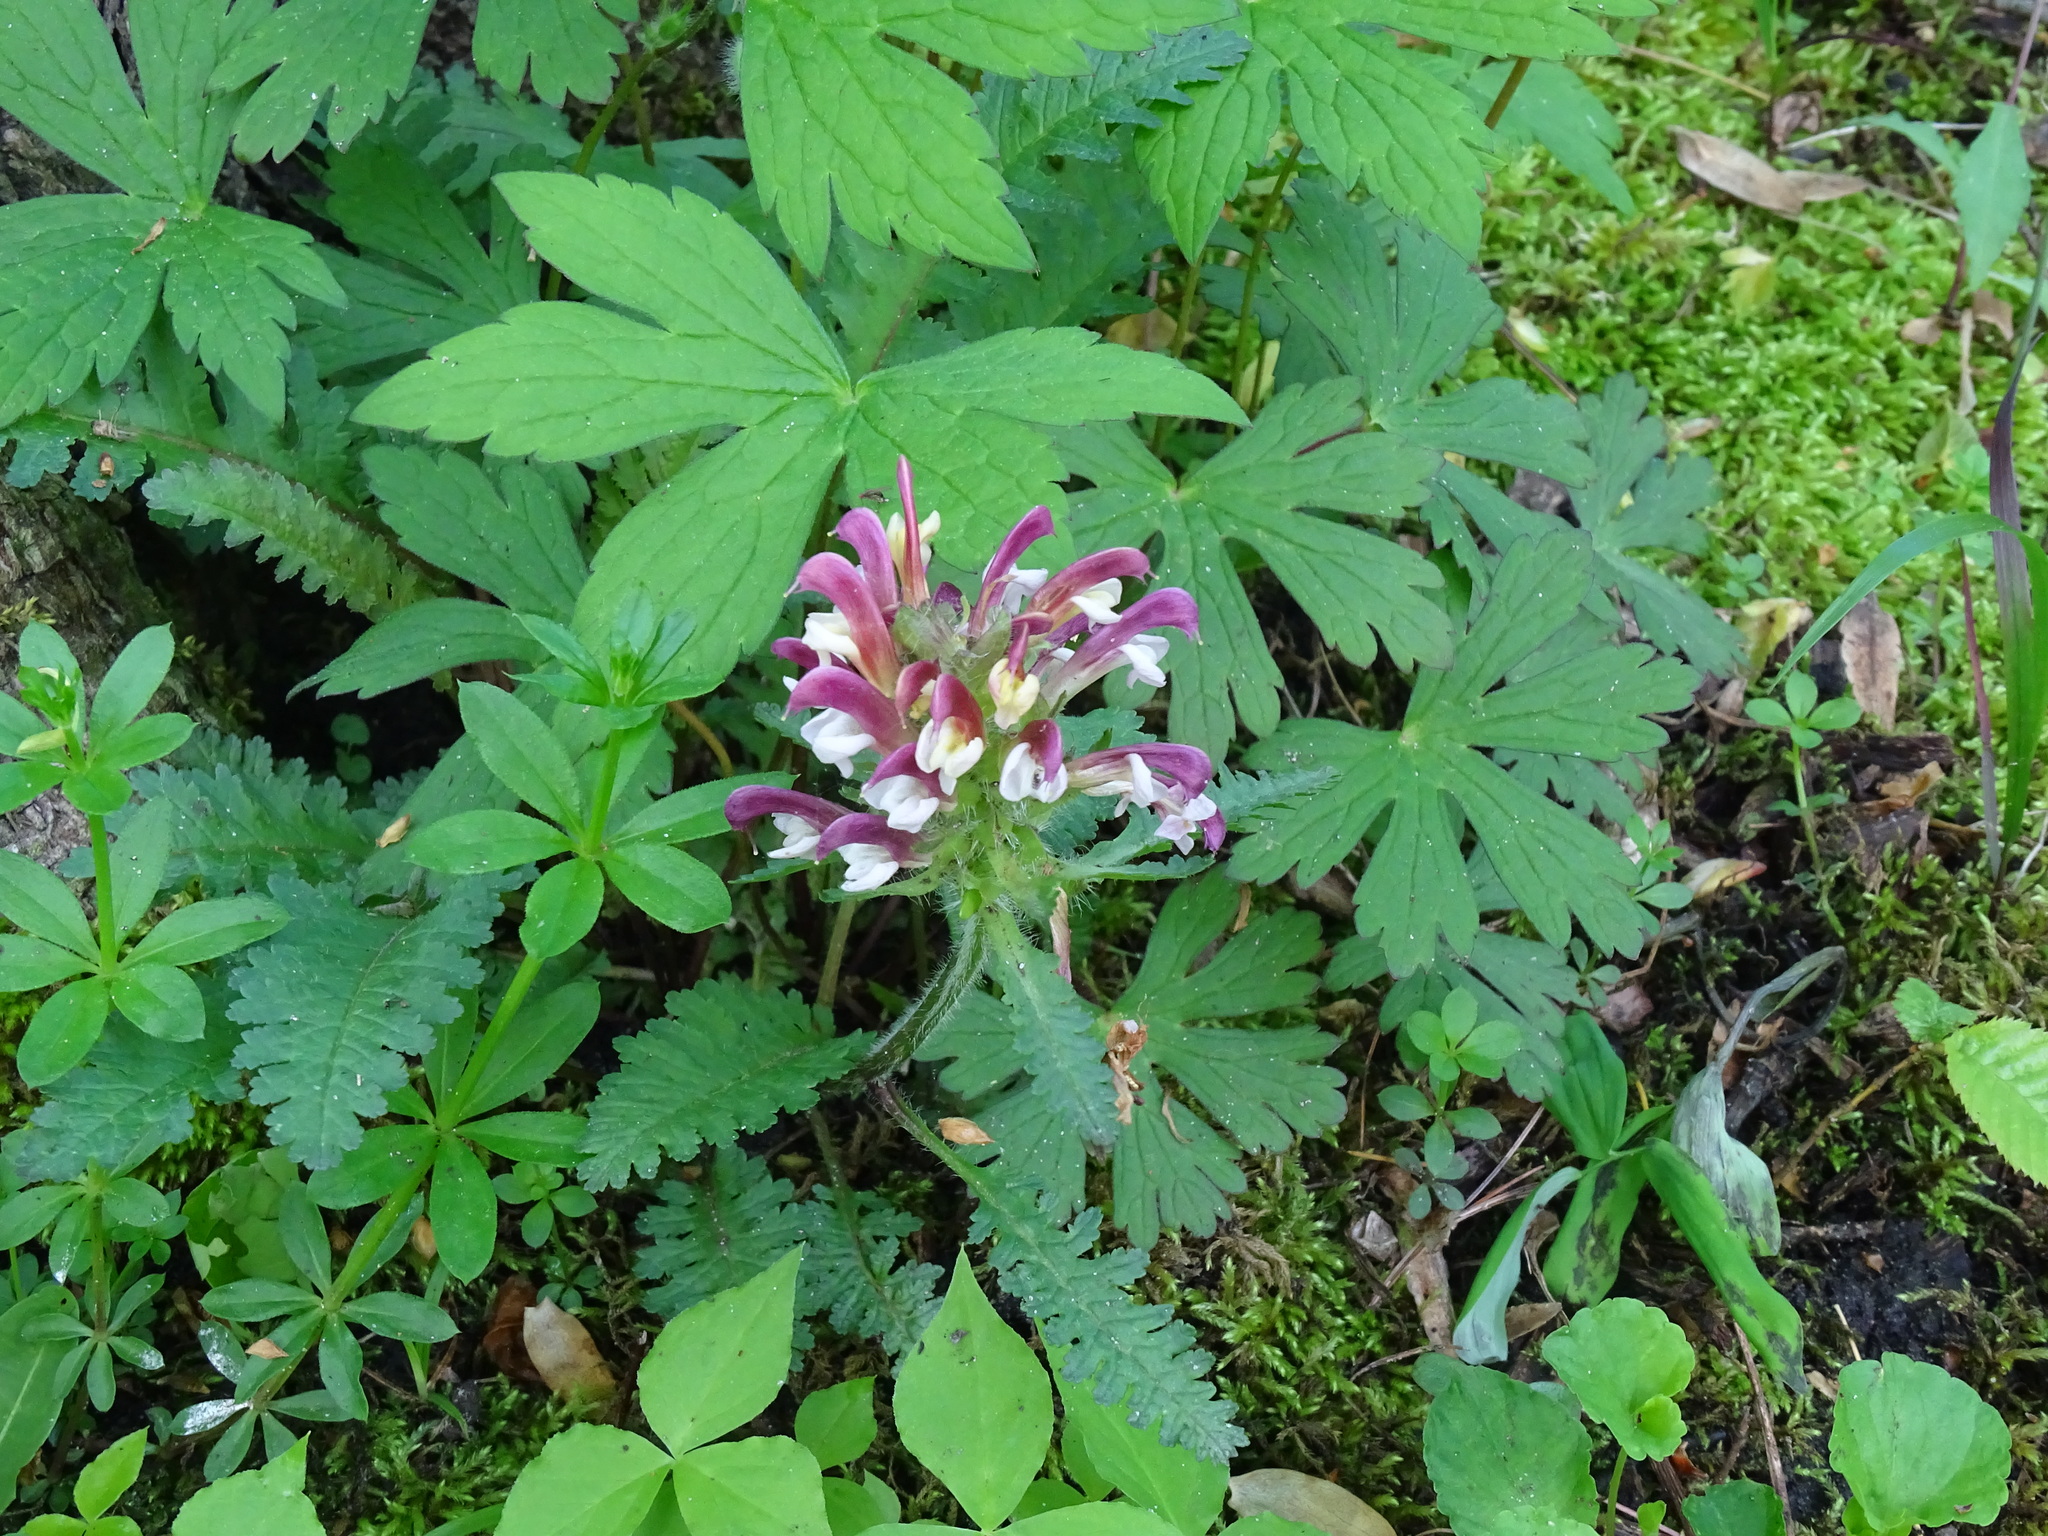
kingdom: Plantae
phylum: Tracheophyta
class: Magnoliopsida
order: Lamiales
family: Orobanchaceae
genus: Pedicularis
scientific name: Pedicularis canadensis
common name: Early lousewort
